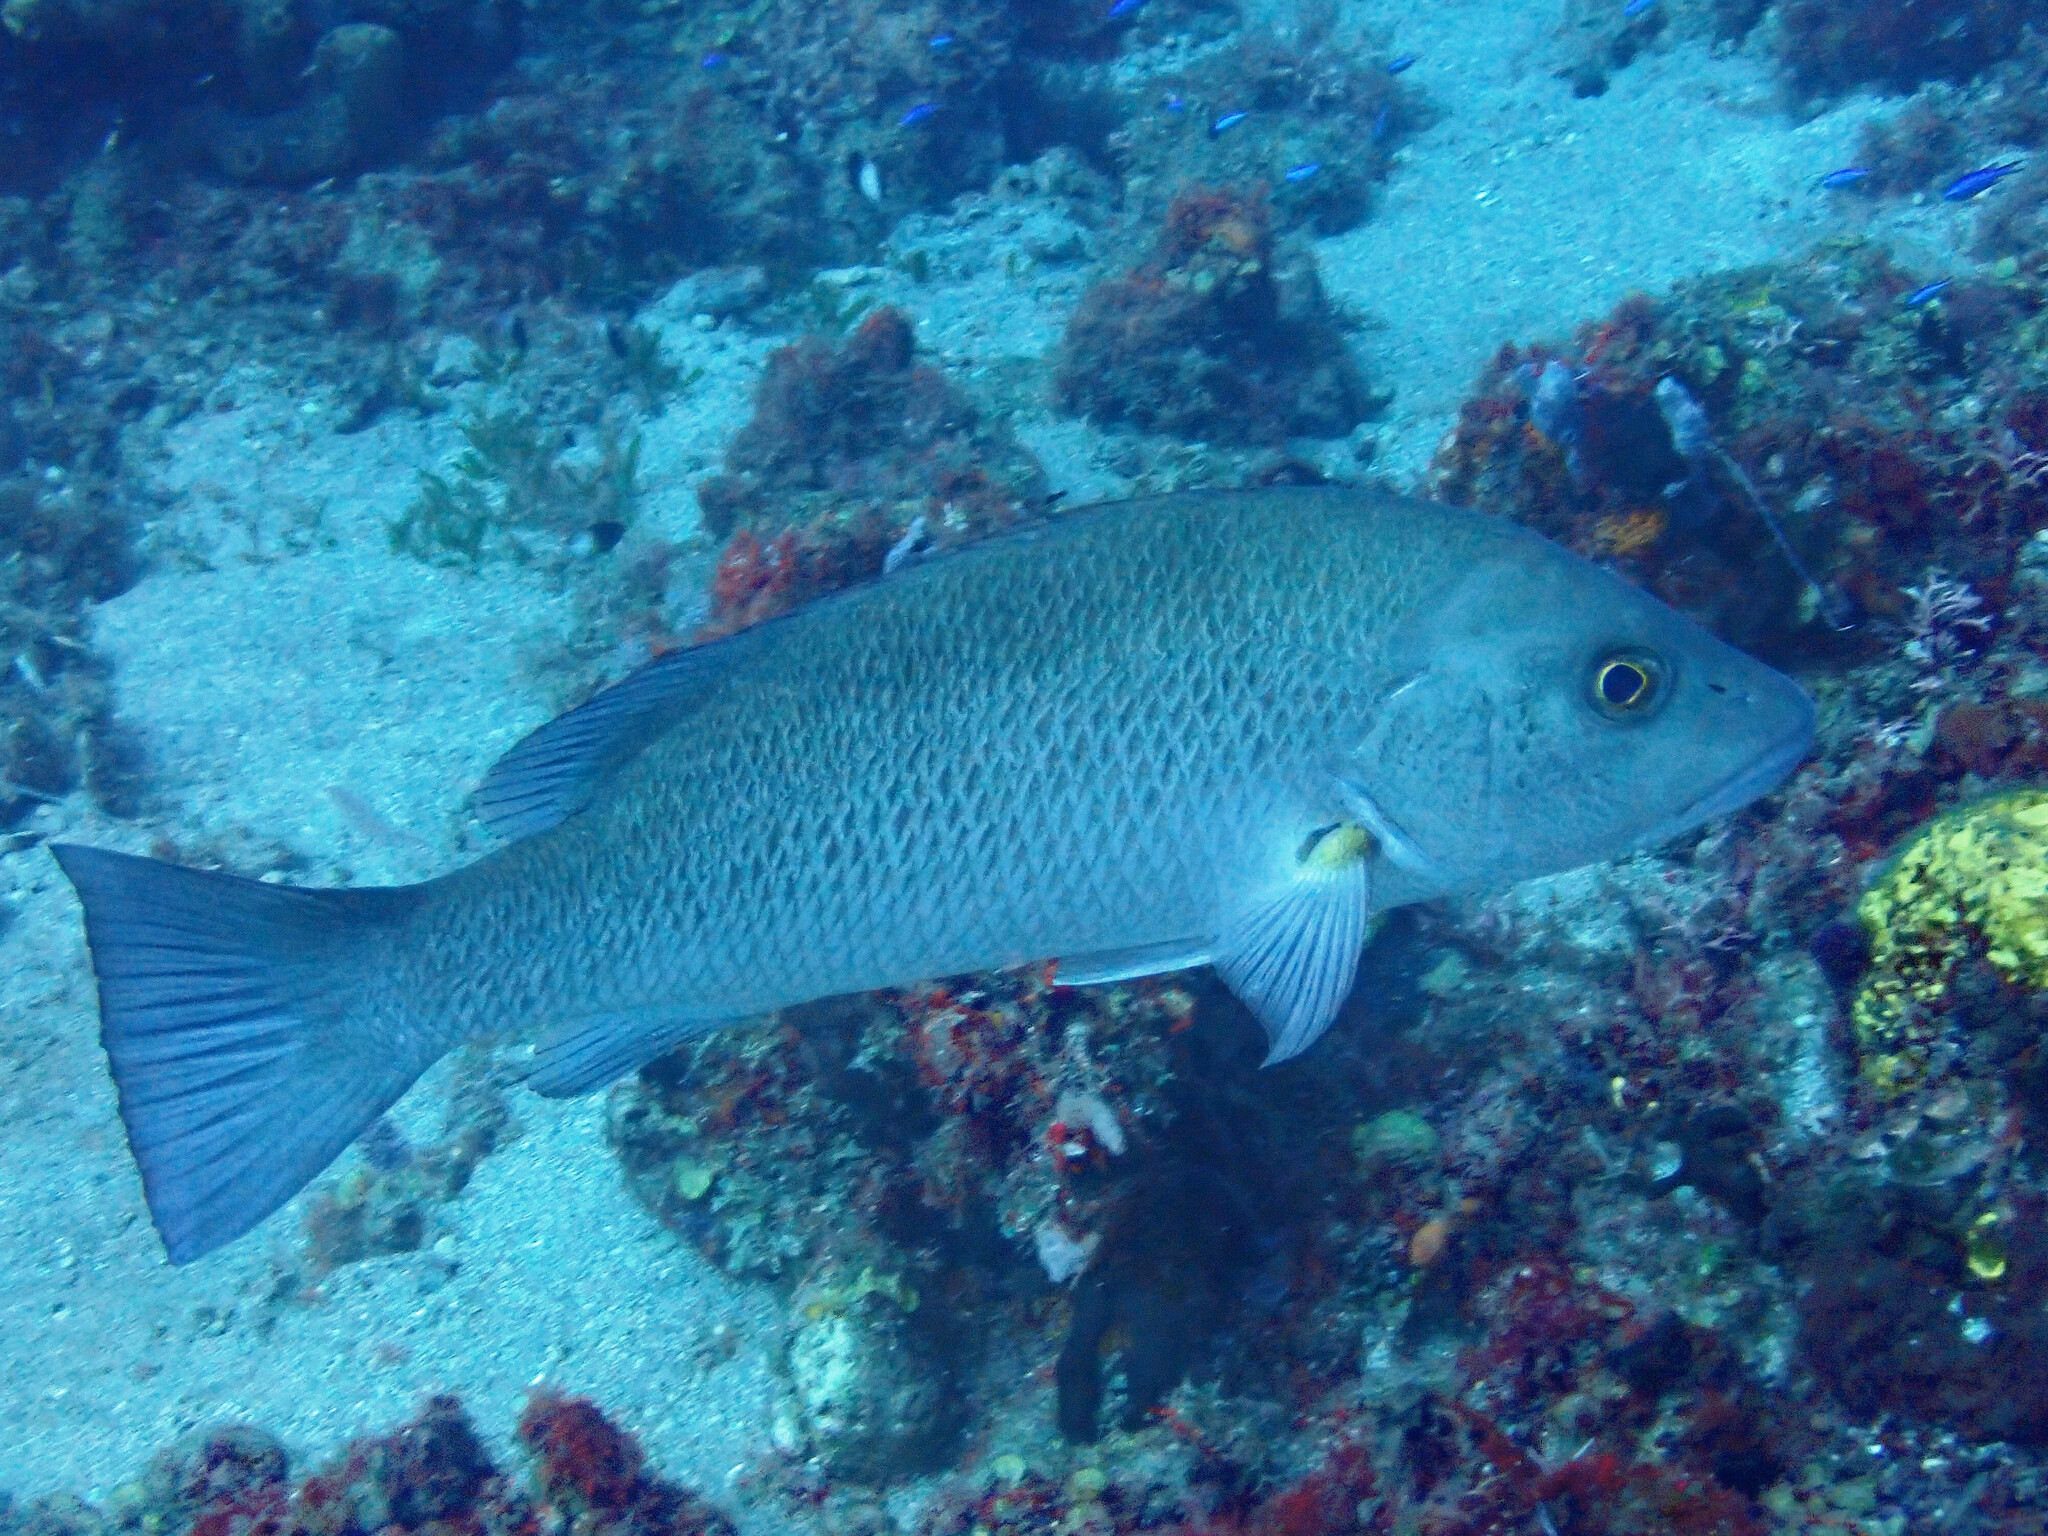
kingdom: Animalia
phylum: Chordata
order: Perciformes
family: Lutjanidae
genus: Lutjanus
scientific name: Lutjanus griseus
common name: Gray snapper
